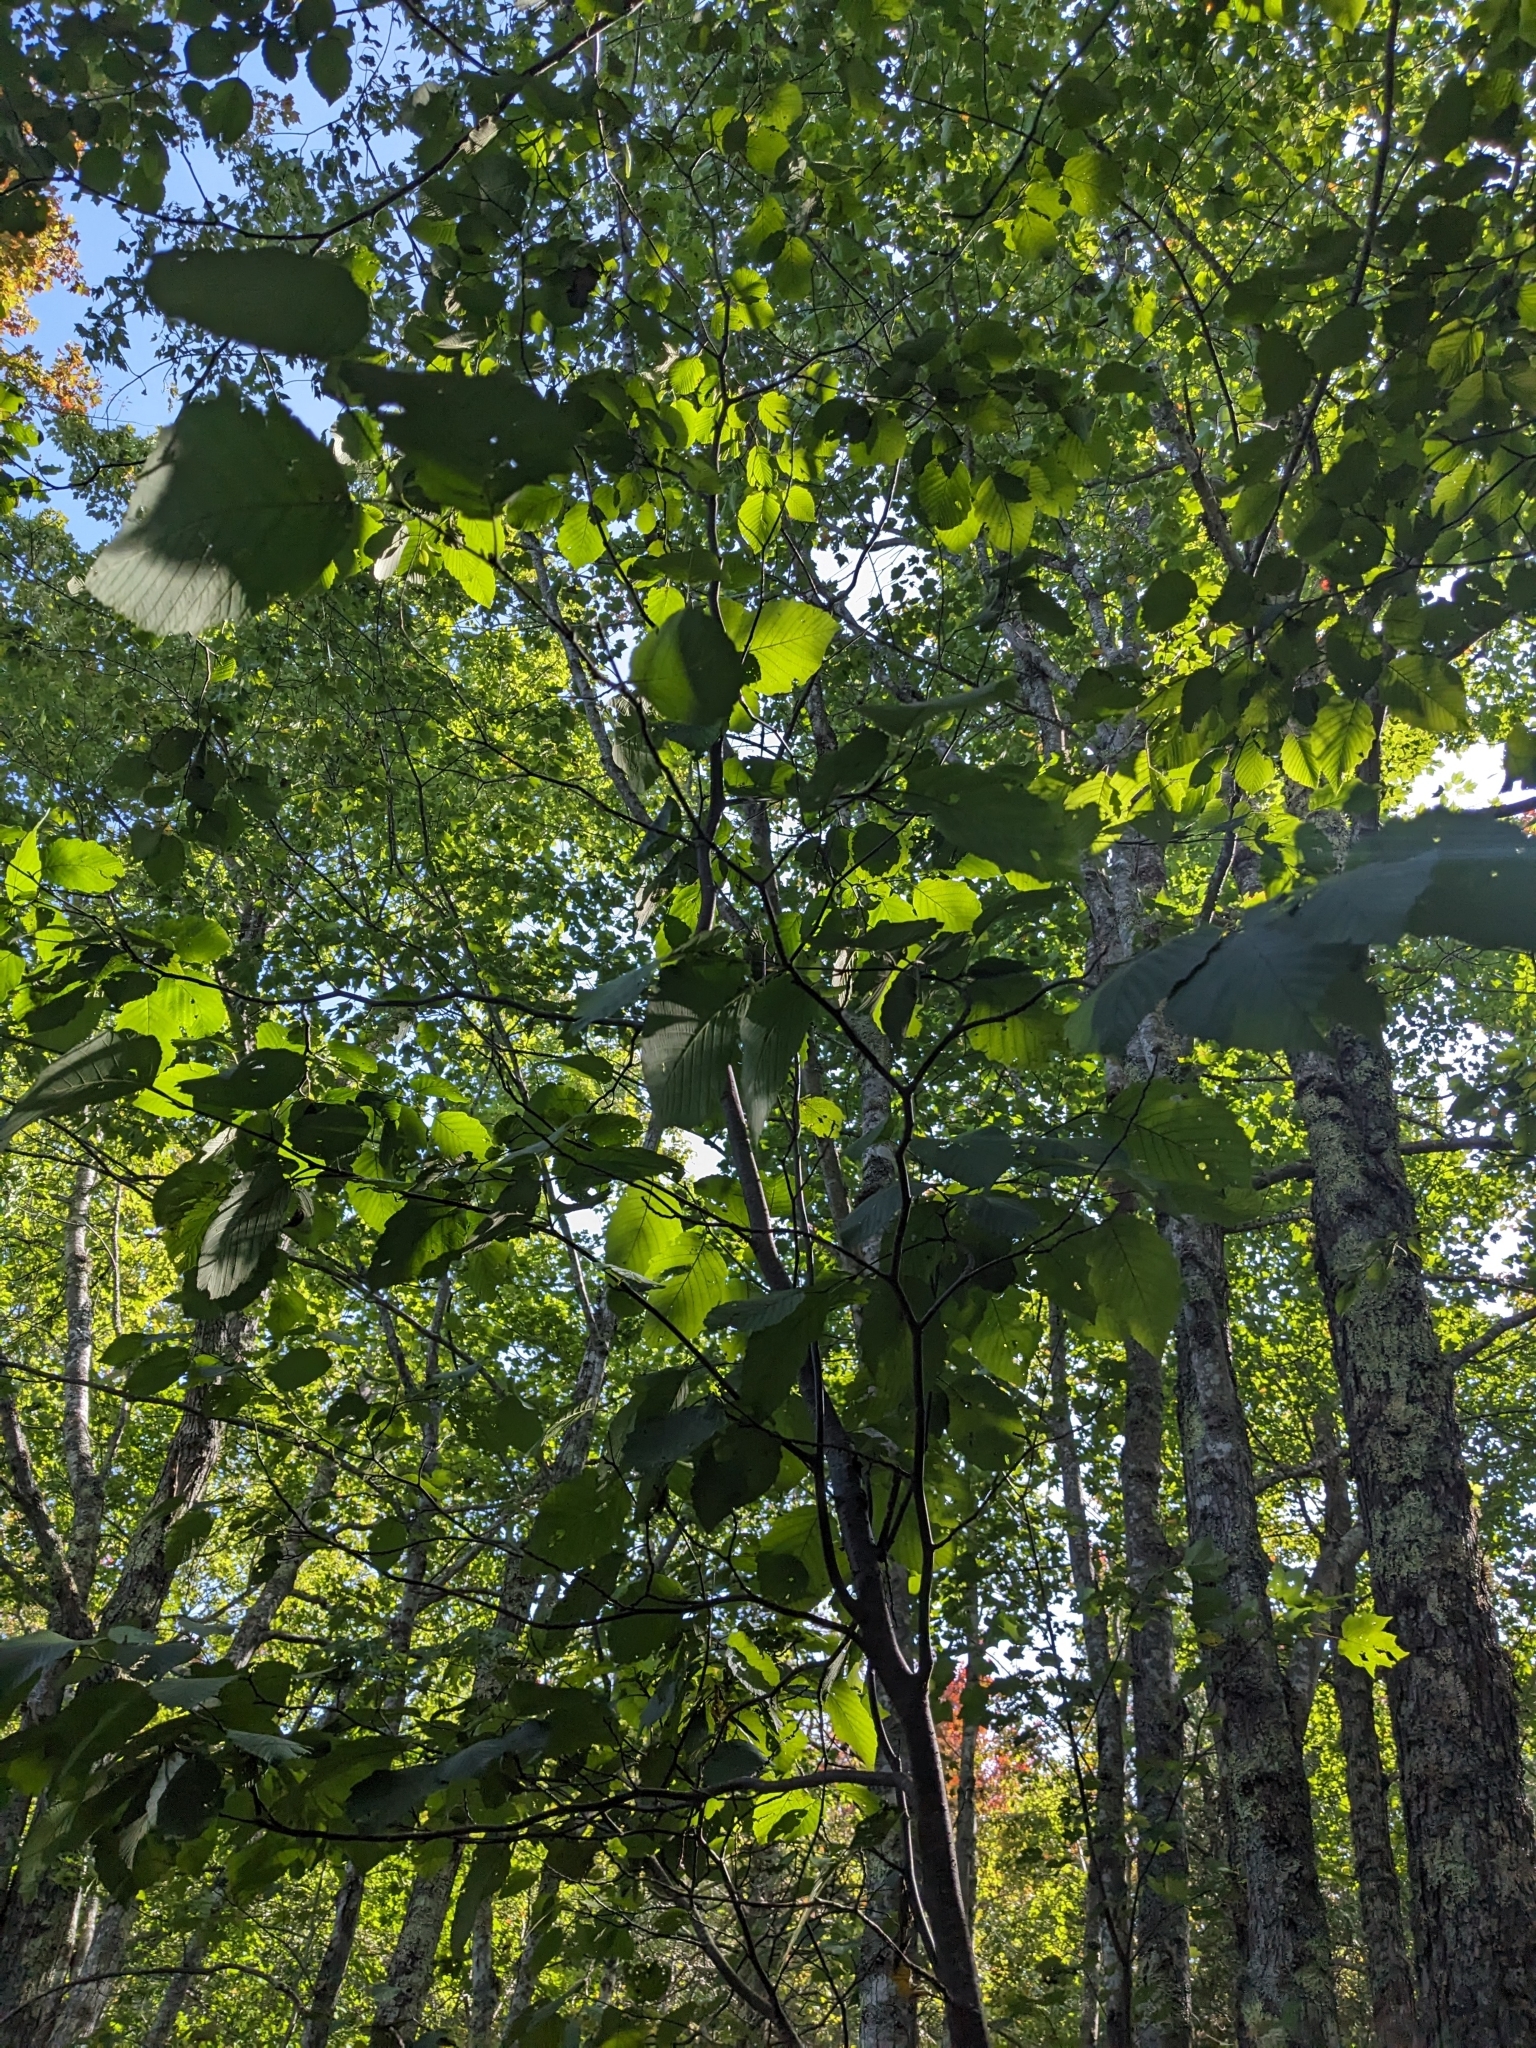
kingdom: Plantae
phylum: Tracheophyta
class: Magnoliopsida
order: Saxifragales
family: Hamamelidaceae
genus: Hamamelis
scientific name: Hamamelis virginiana
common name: Witch-hazel
